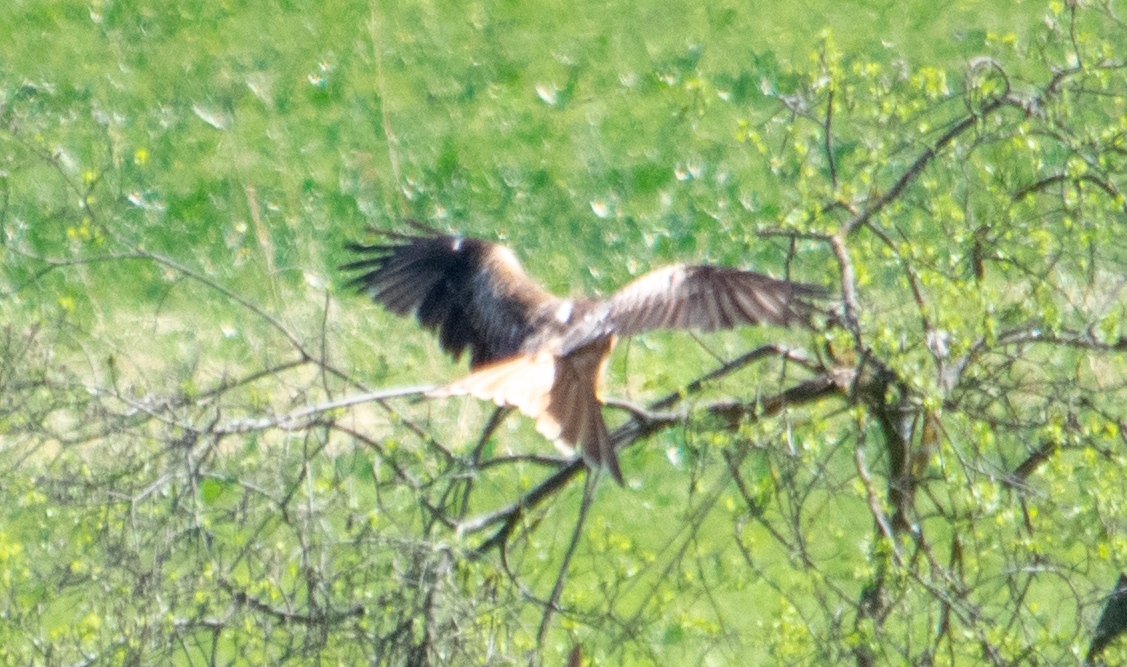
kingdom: Animalia
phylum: Chordata
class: Aves
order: Accipitriformes
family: Accipitridae
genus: Milvus
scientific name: Milvus milvus
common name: Red kite
